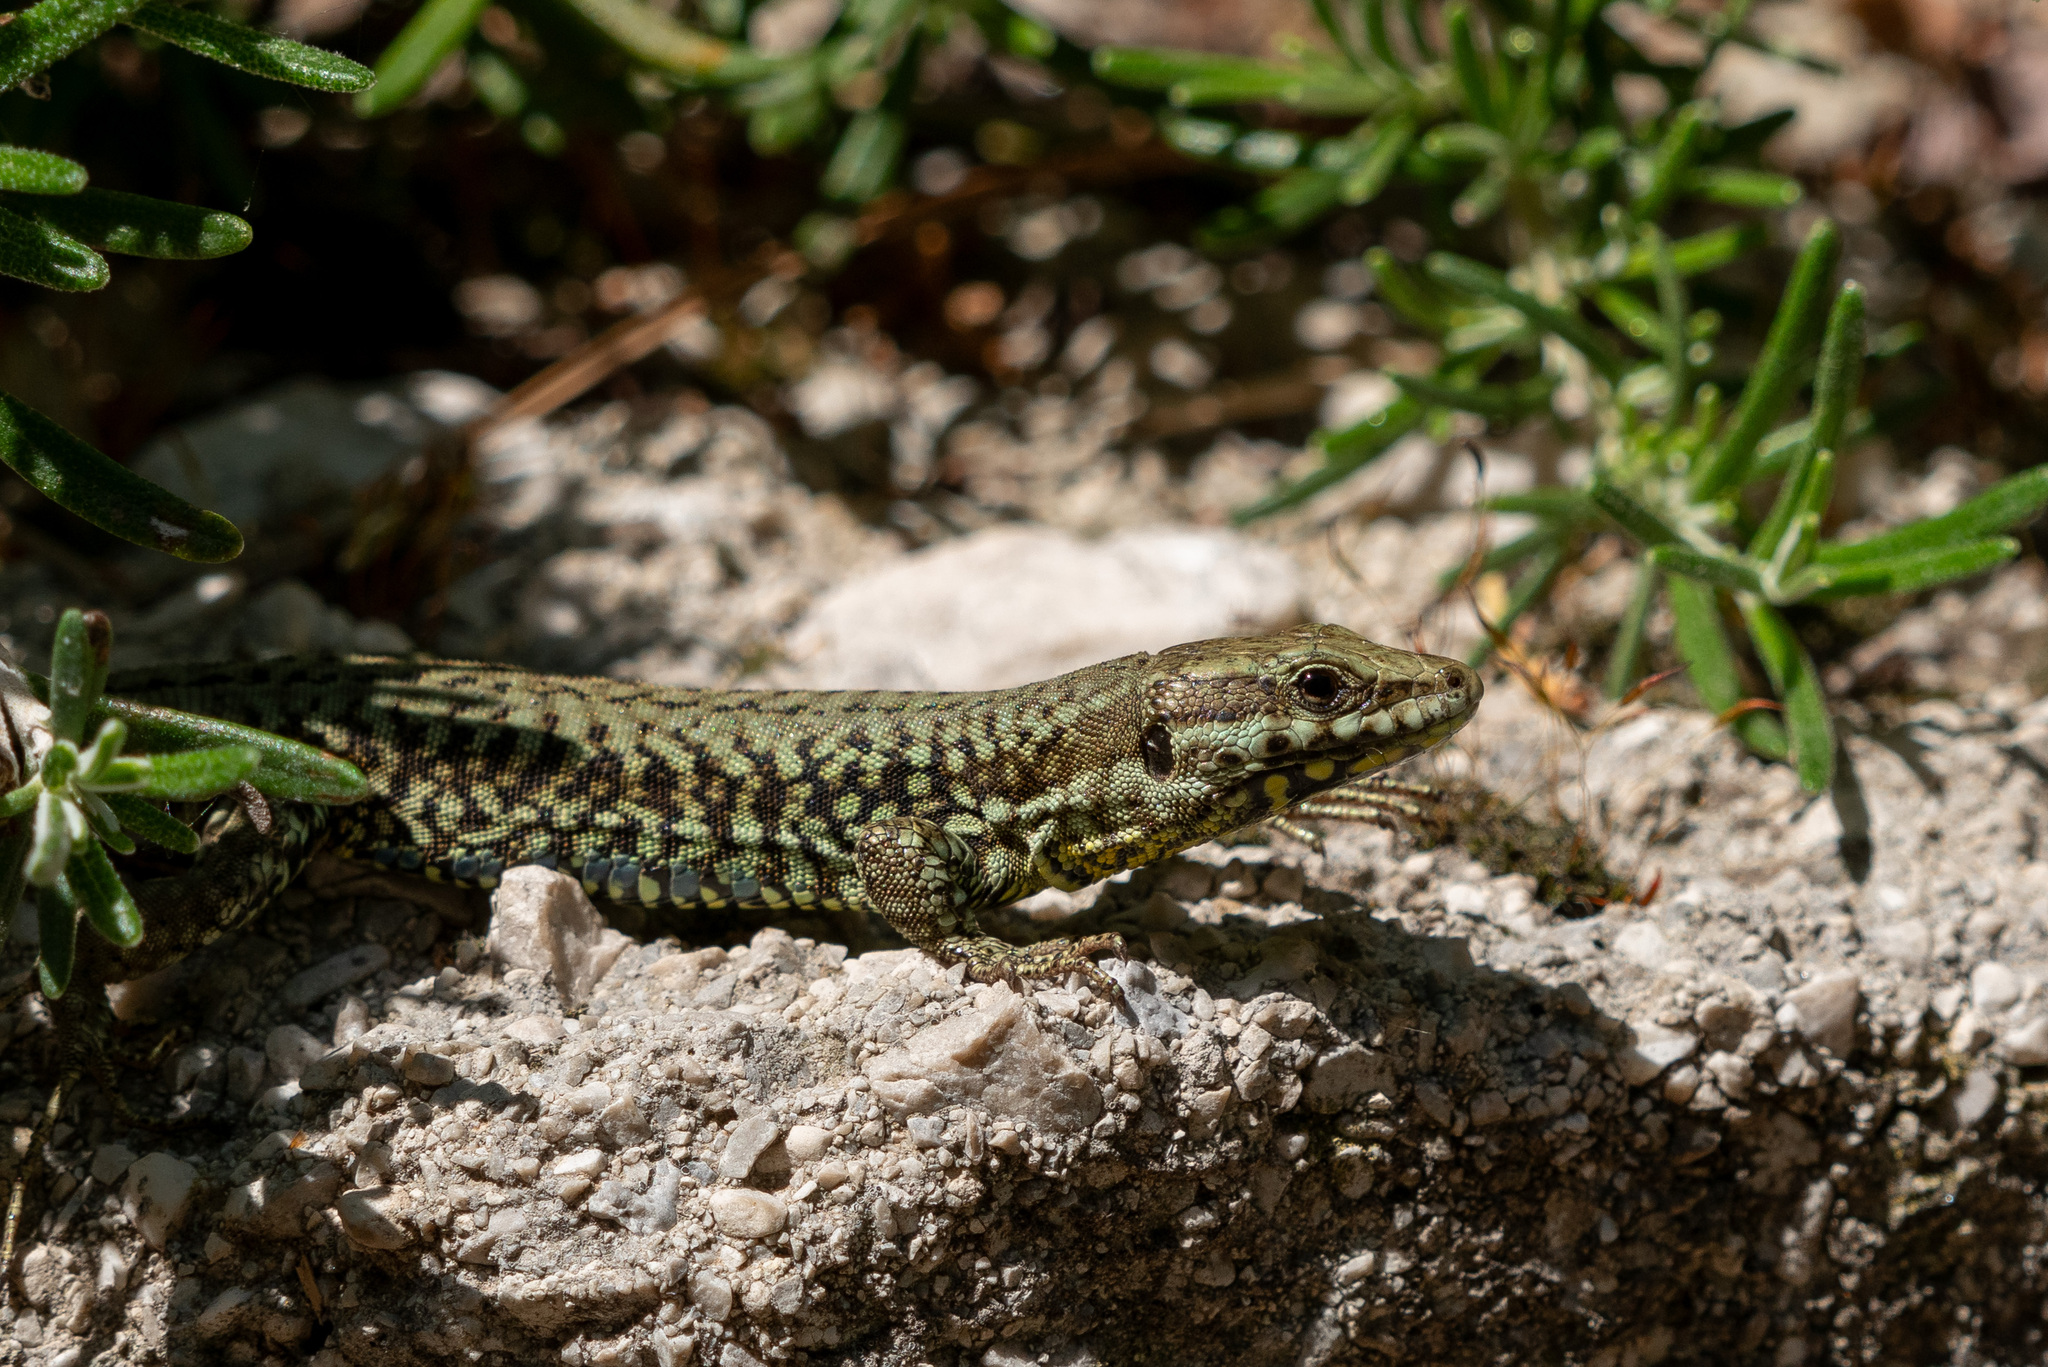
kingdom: Animalia
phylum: Chordata
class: Squamata
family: Lacertidae
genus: Podarcis
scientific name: Podarcis muralis
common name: Common wall lizard
